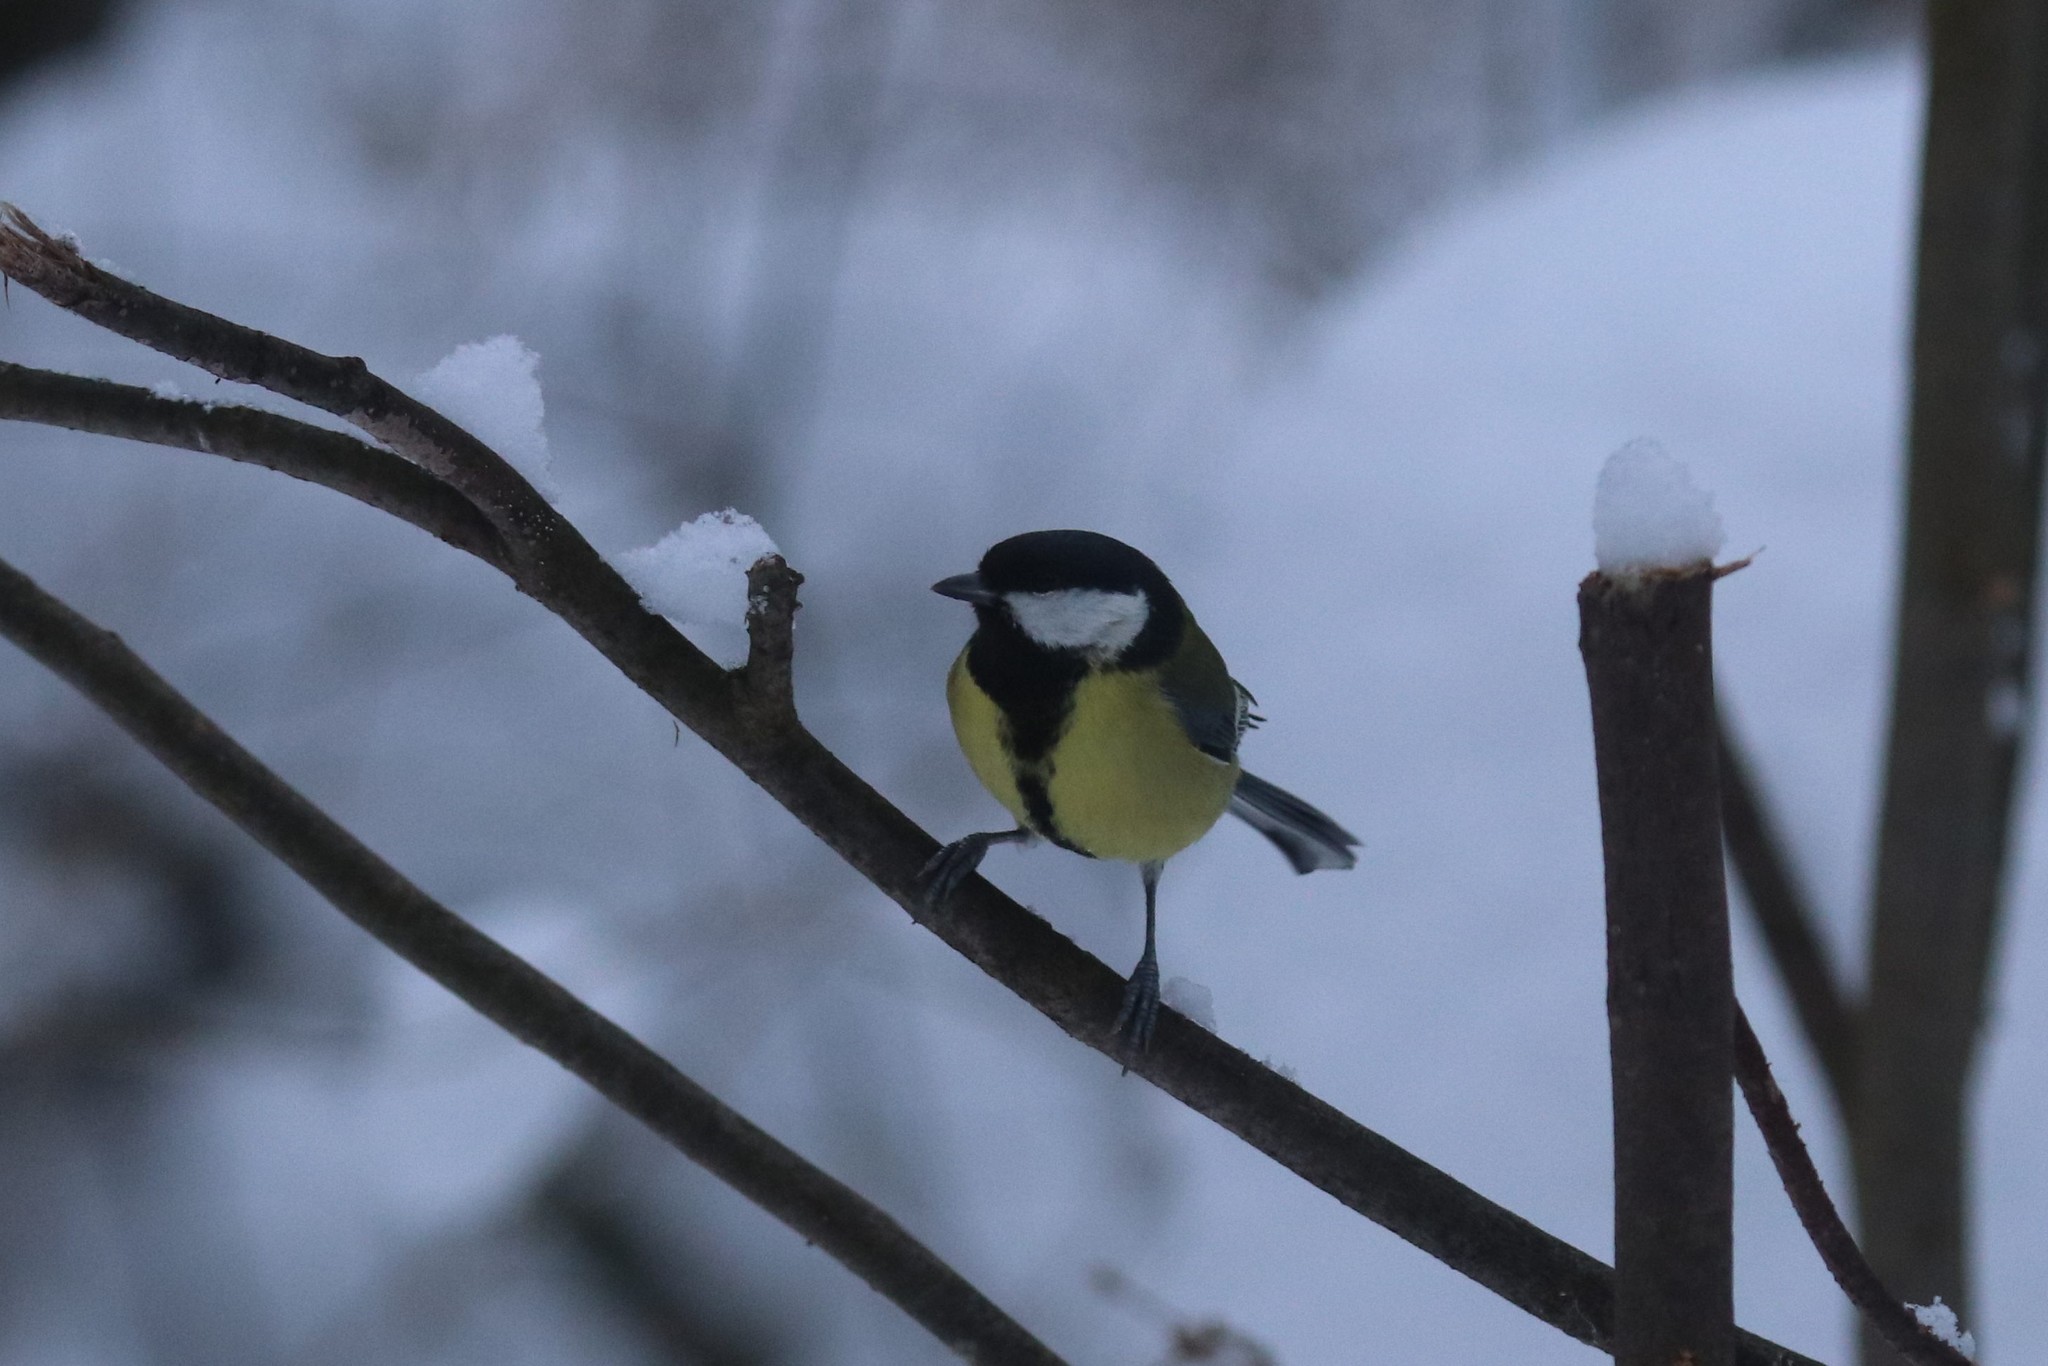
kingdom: Animalia
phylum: Chordata
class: Aves
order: Passeriformes
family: Paridae
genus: Parus
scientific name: Parus major
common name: Great tit
